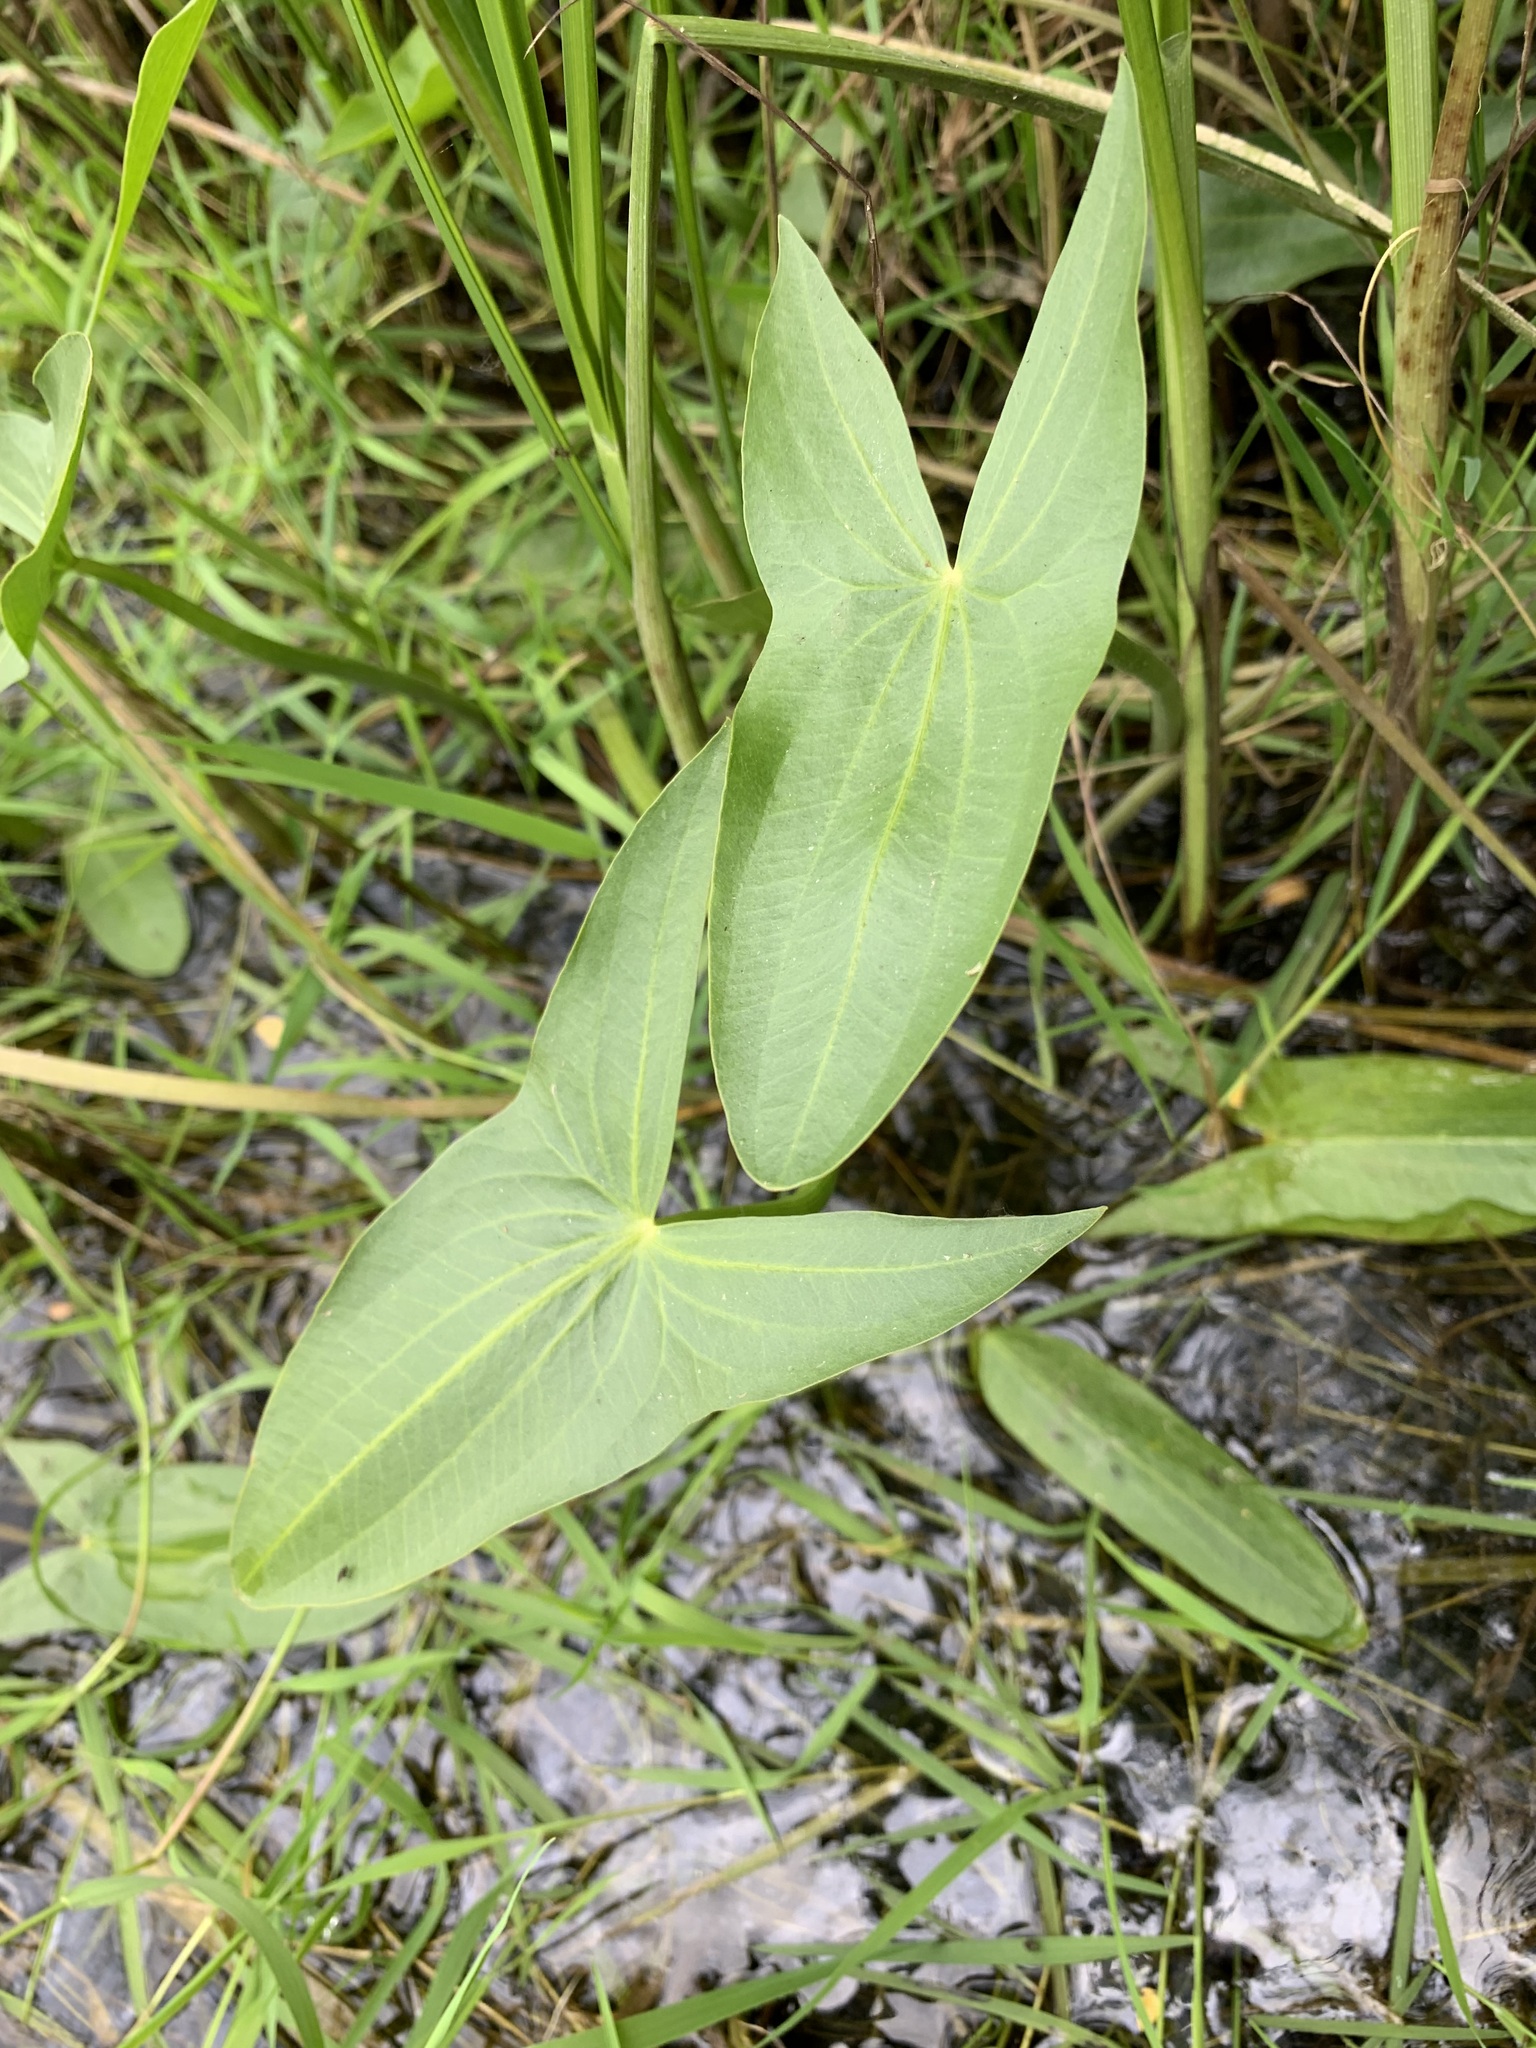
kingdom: Plantae
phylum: Tracheophyta
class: Liliopsida
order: Alismatales
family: Alismataceae
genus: Sagittaria
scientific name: Sagittaria sagittifolia
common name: Arrowhead
